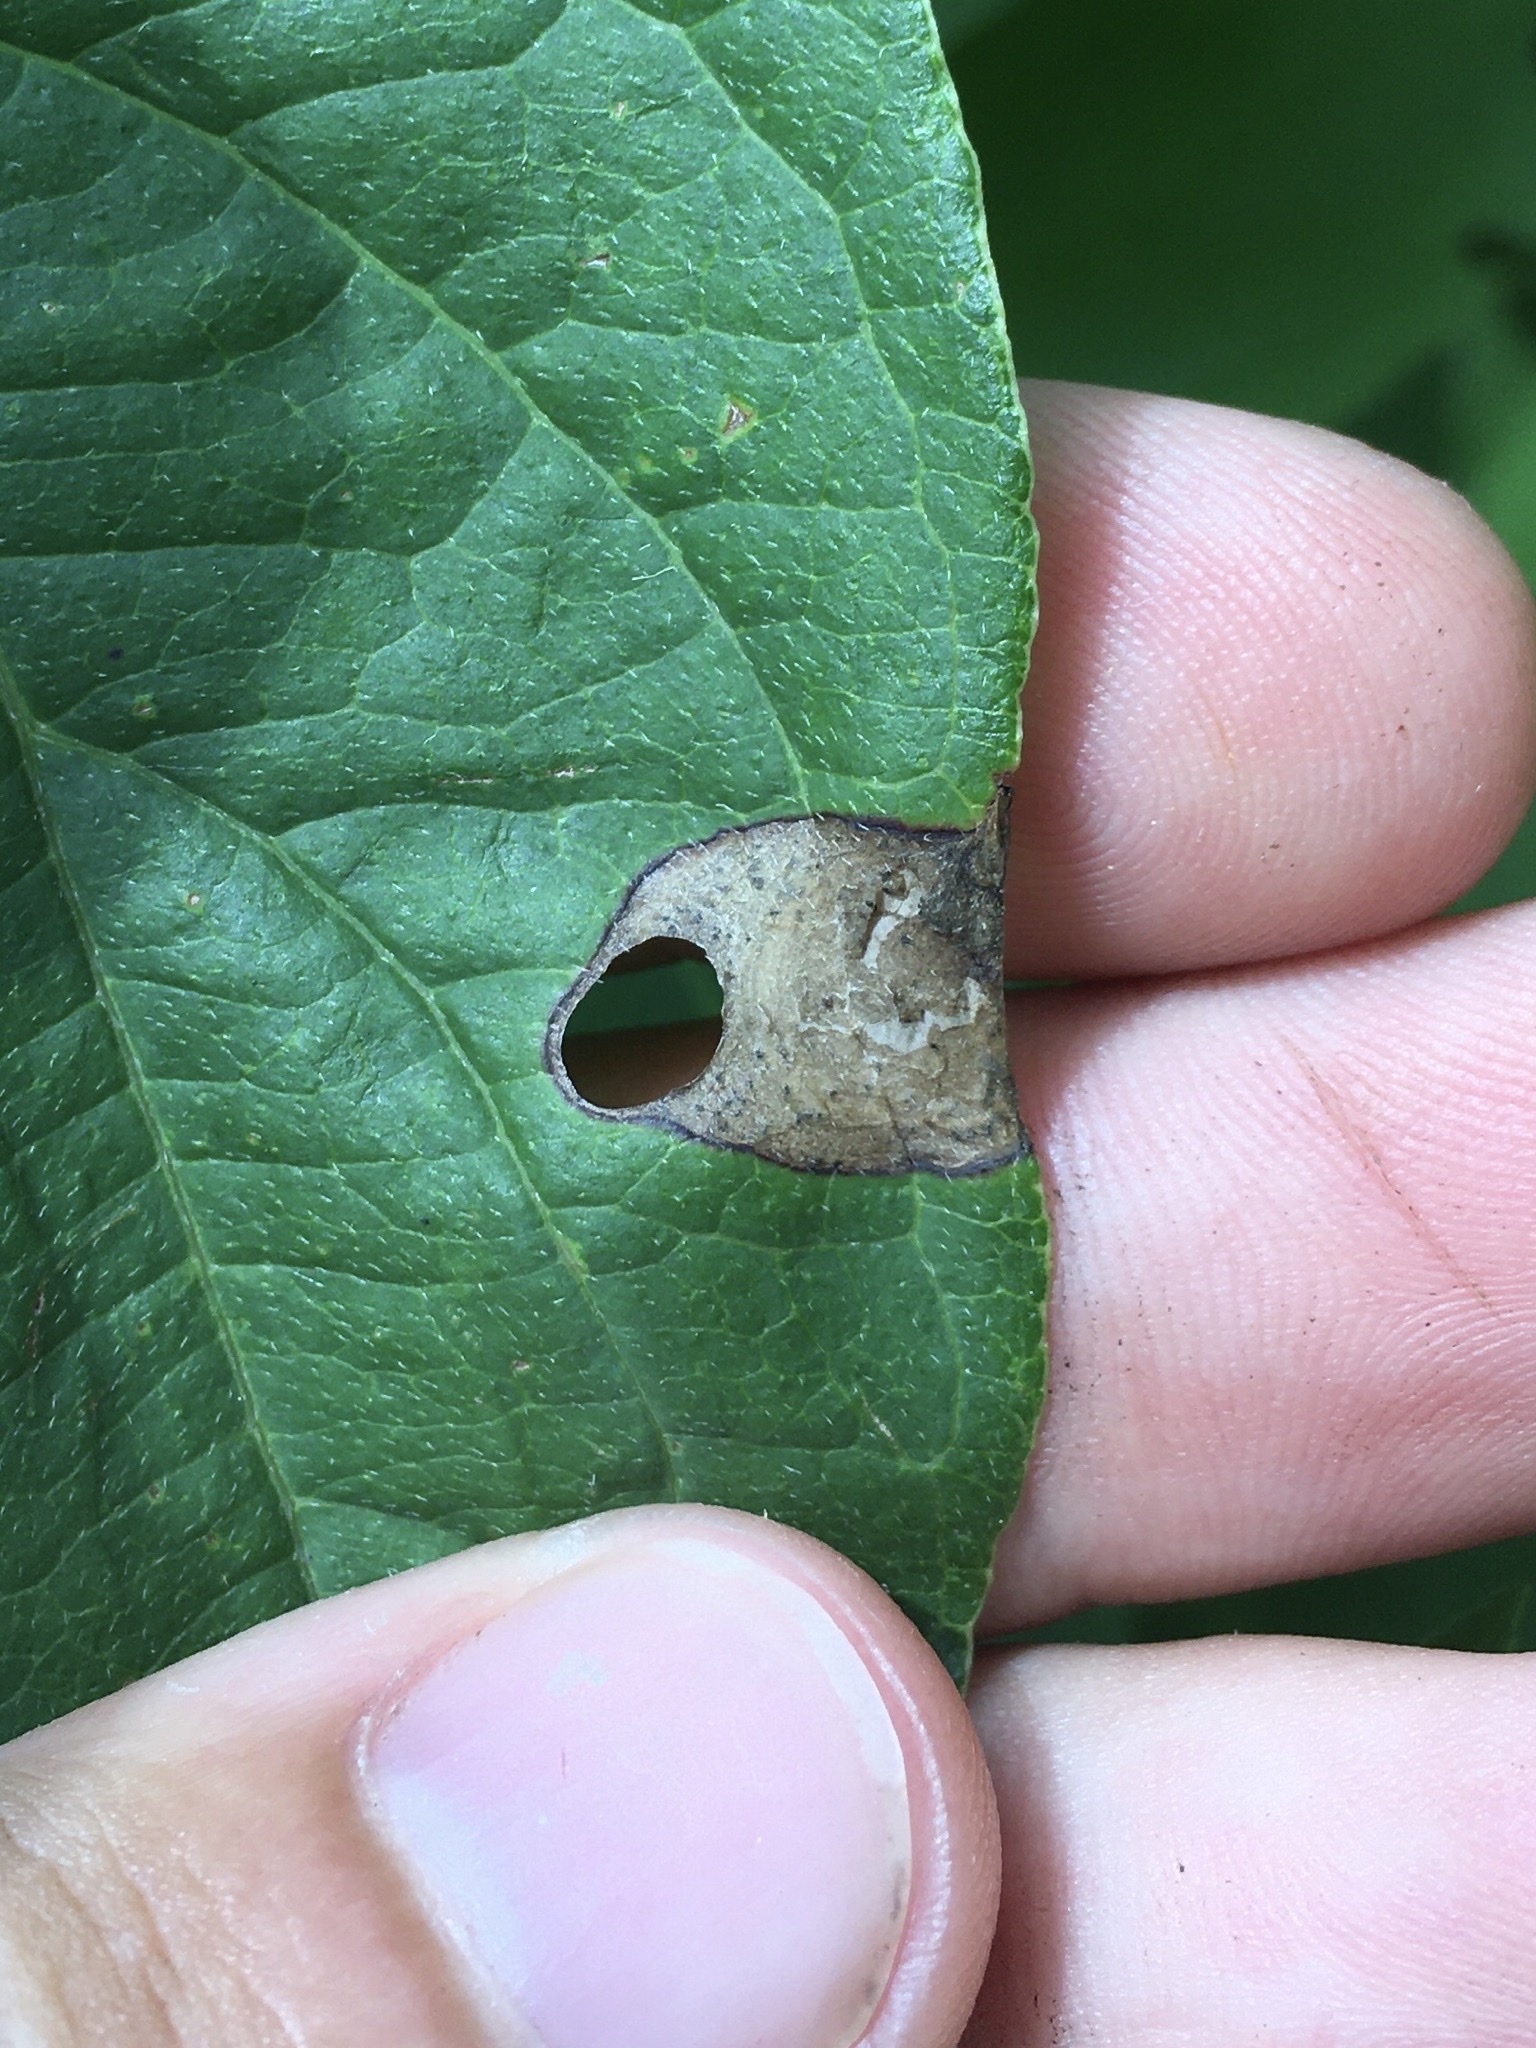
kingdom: Animalia
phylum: Arthropoda
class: Insecta
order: Lepidoptera
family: Heliozelidae
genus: Antispila
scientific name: Antispila freemani
